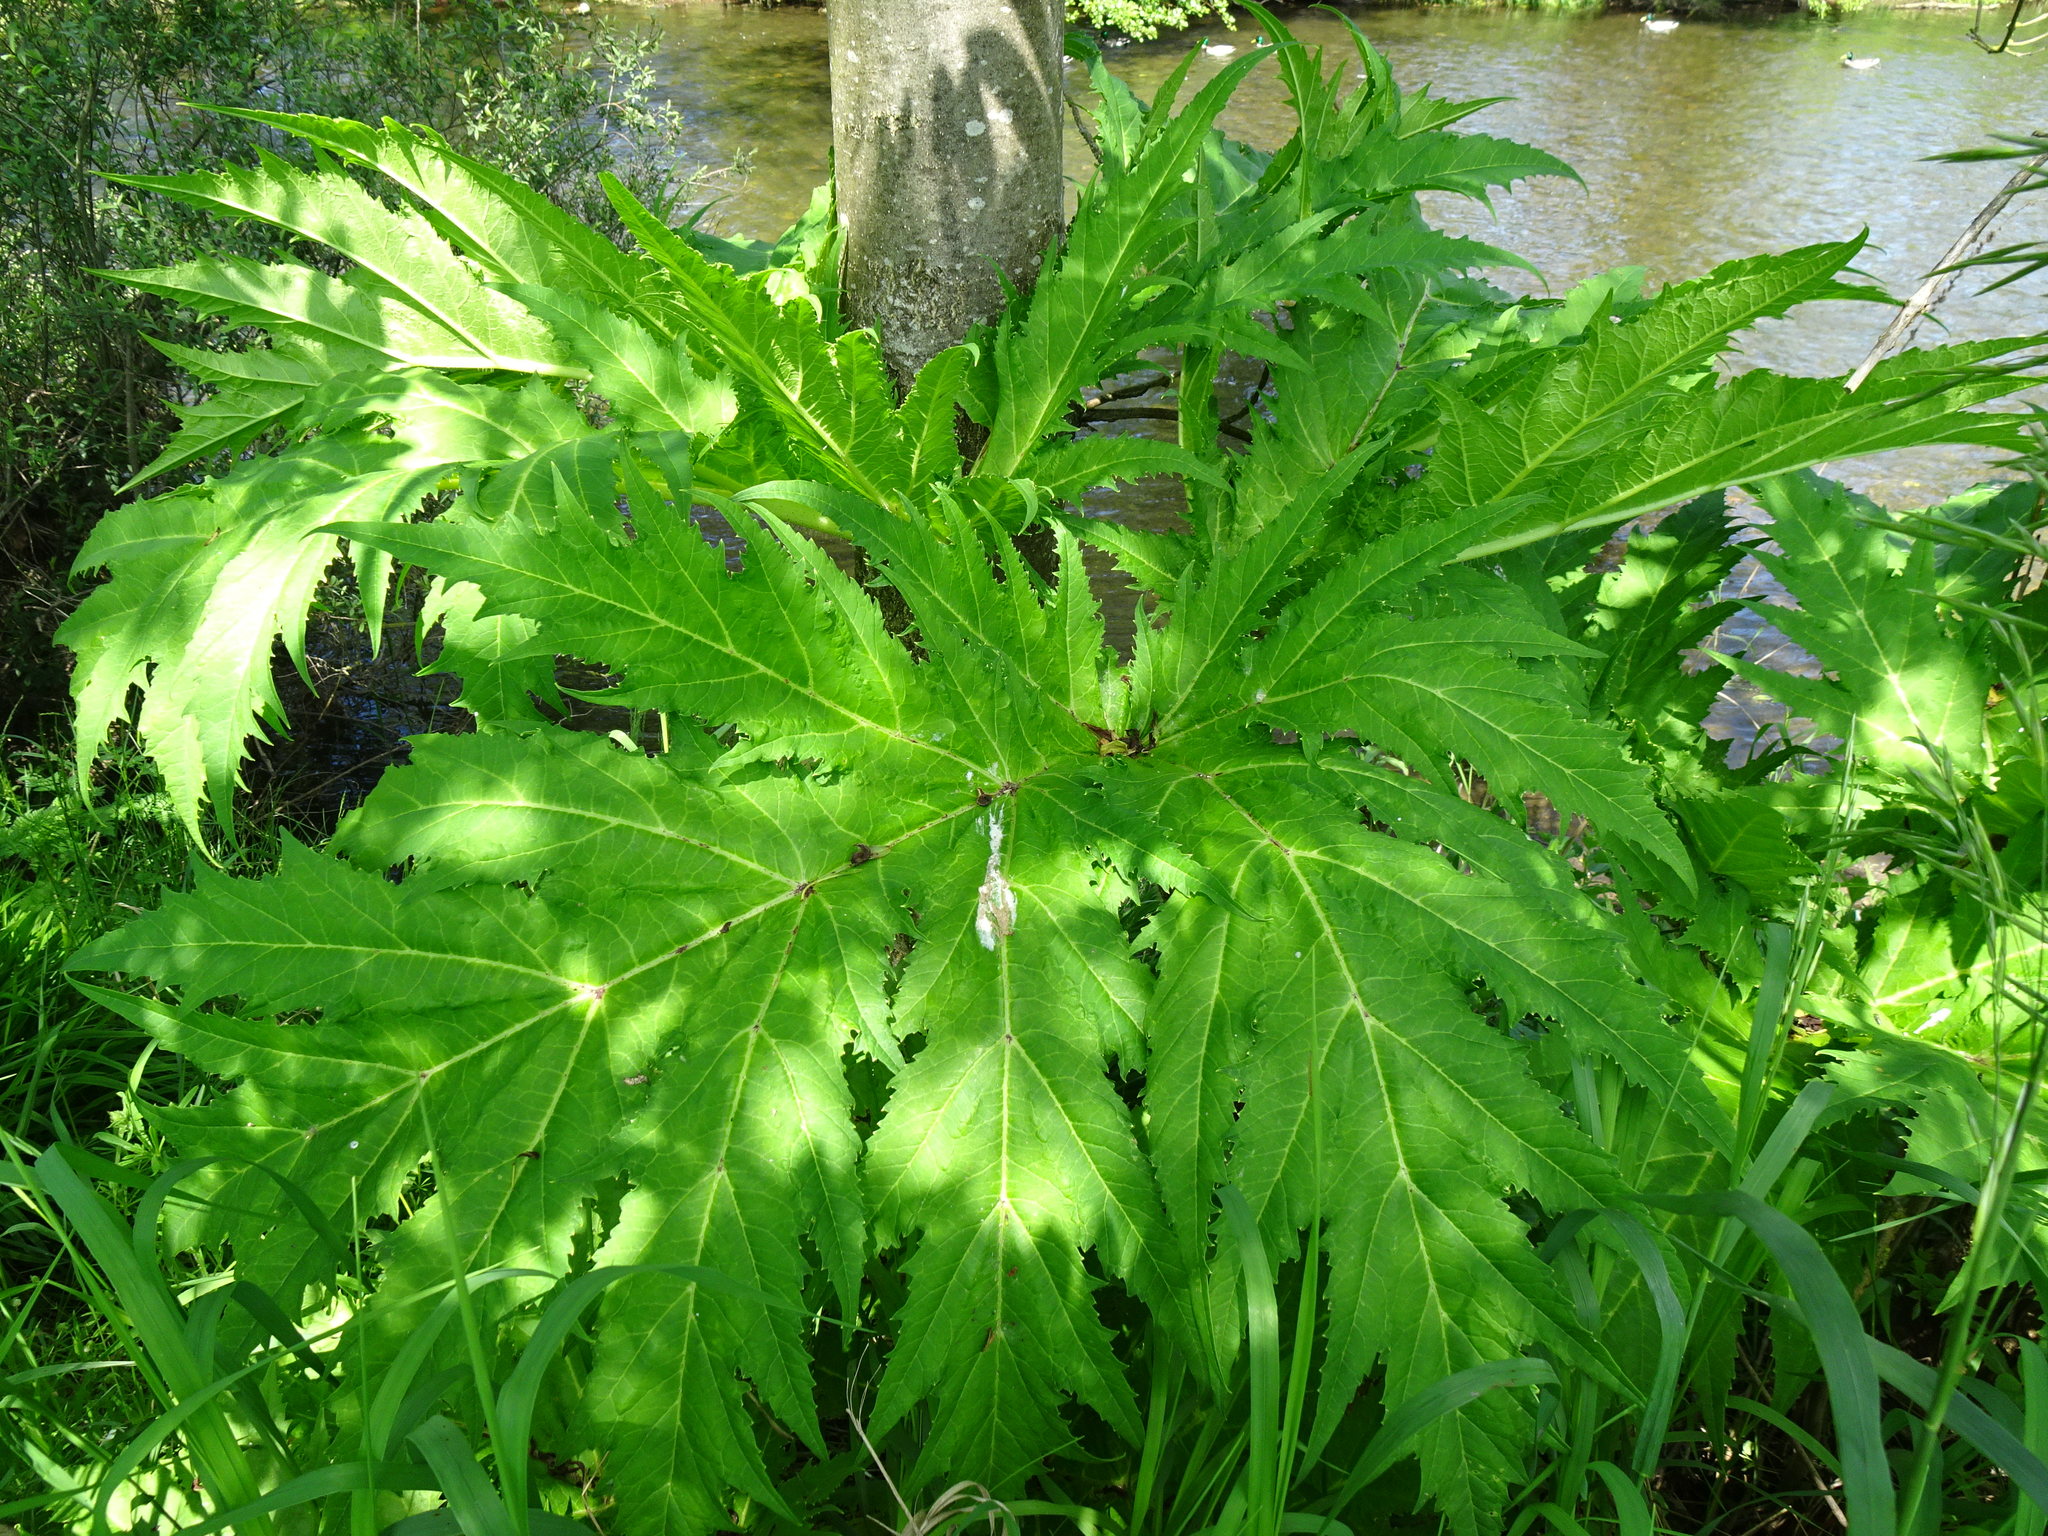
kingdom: Plantae
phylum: Tracheophyta
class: Magnoliopsida
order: Apiales
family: Apiaceae
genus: Heracleum
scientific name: Heracleum mantegazzianum
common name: Giant hogweed
